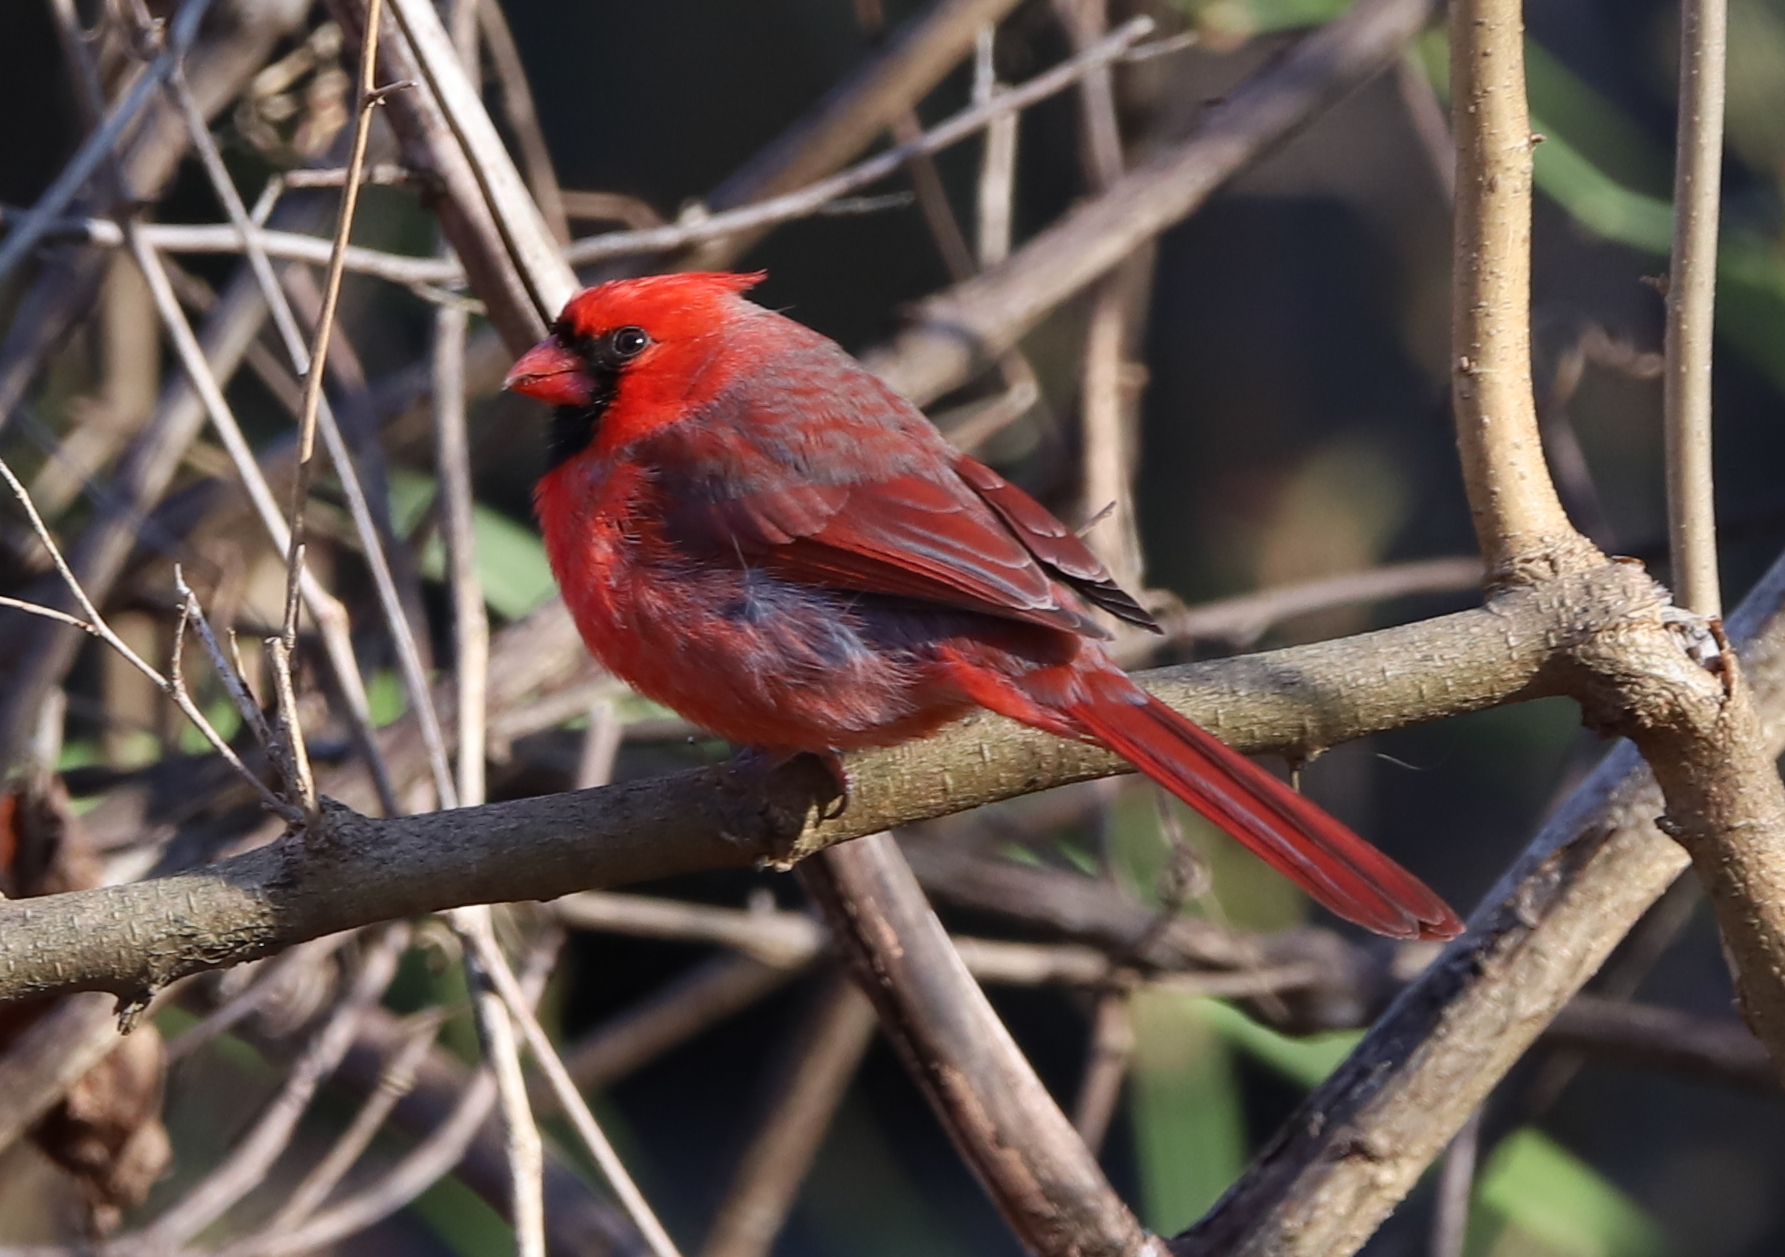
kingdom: Animalia
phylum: Chordata
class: Aves
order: Passeriformes
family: Cardinalidae
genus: Cardinalis
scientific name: Cardinalis cardinalis
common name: Northern cardinal
